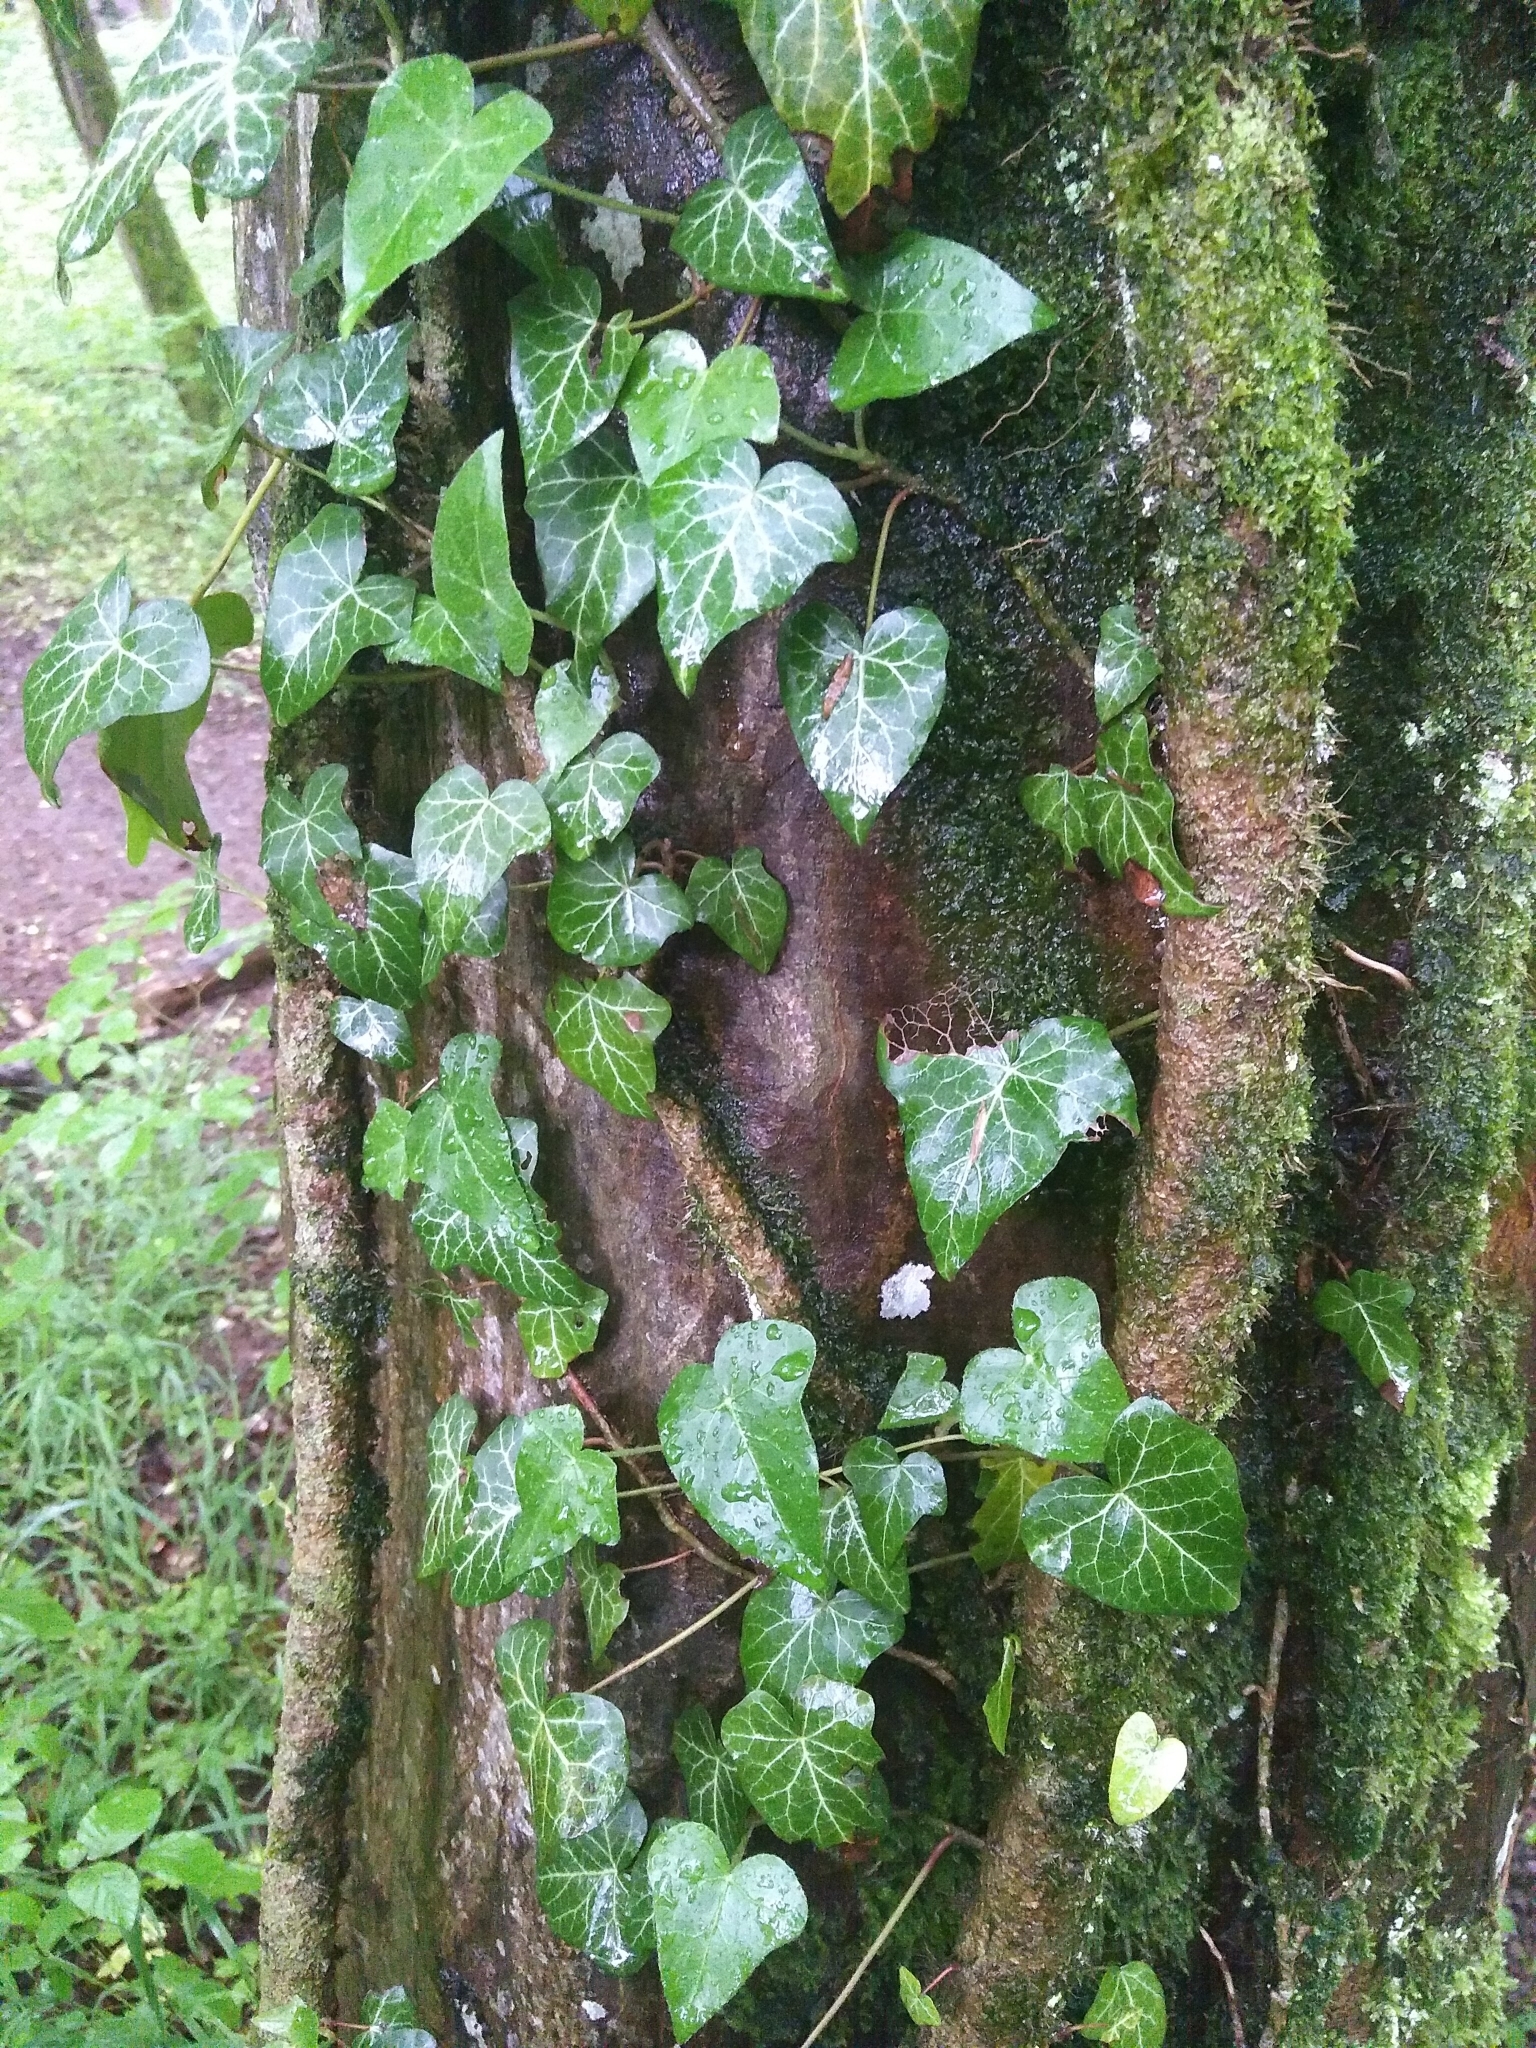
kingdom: Plantae
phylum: Tracheophyta
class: Magnoliopsida
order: Apiales
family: Araliaceae
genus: Hedera
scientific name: Hedera helix
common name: Ivy
